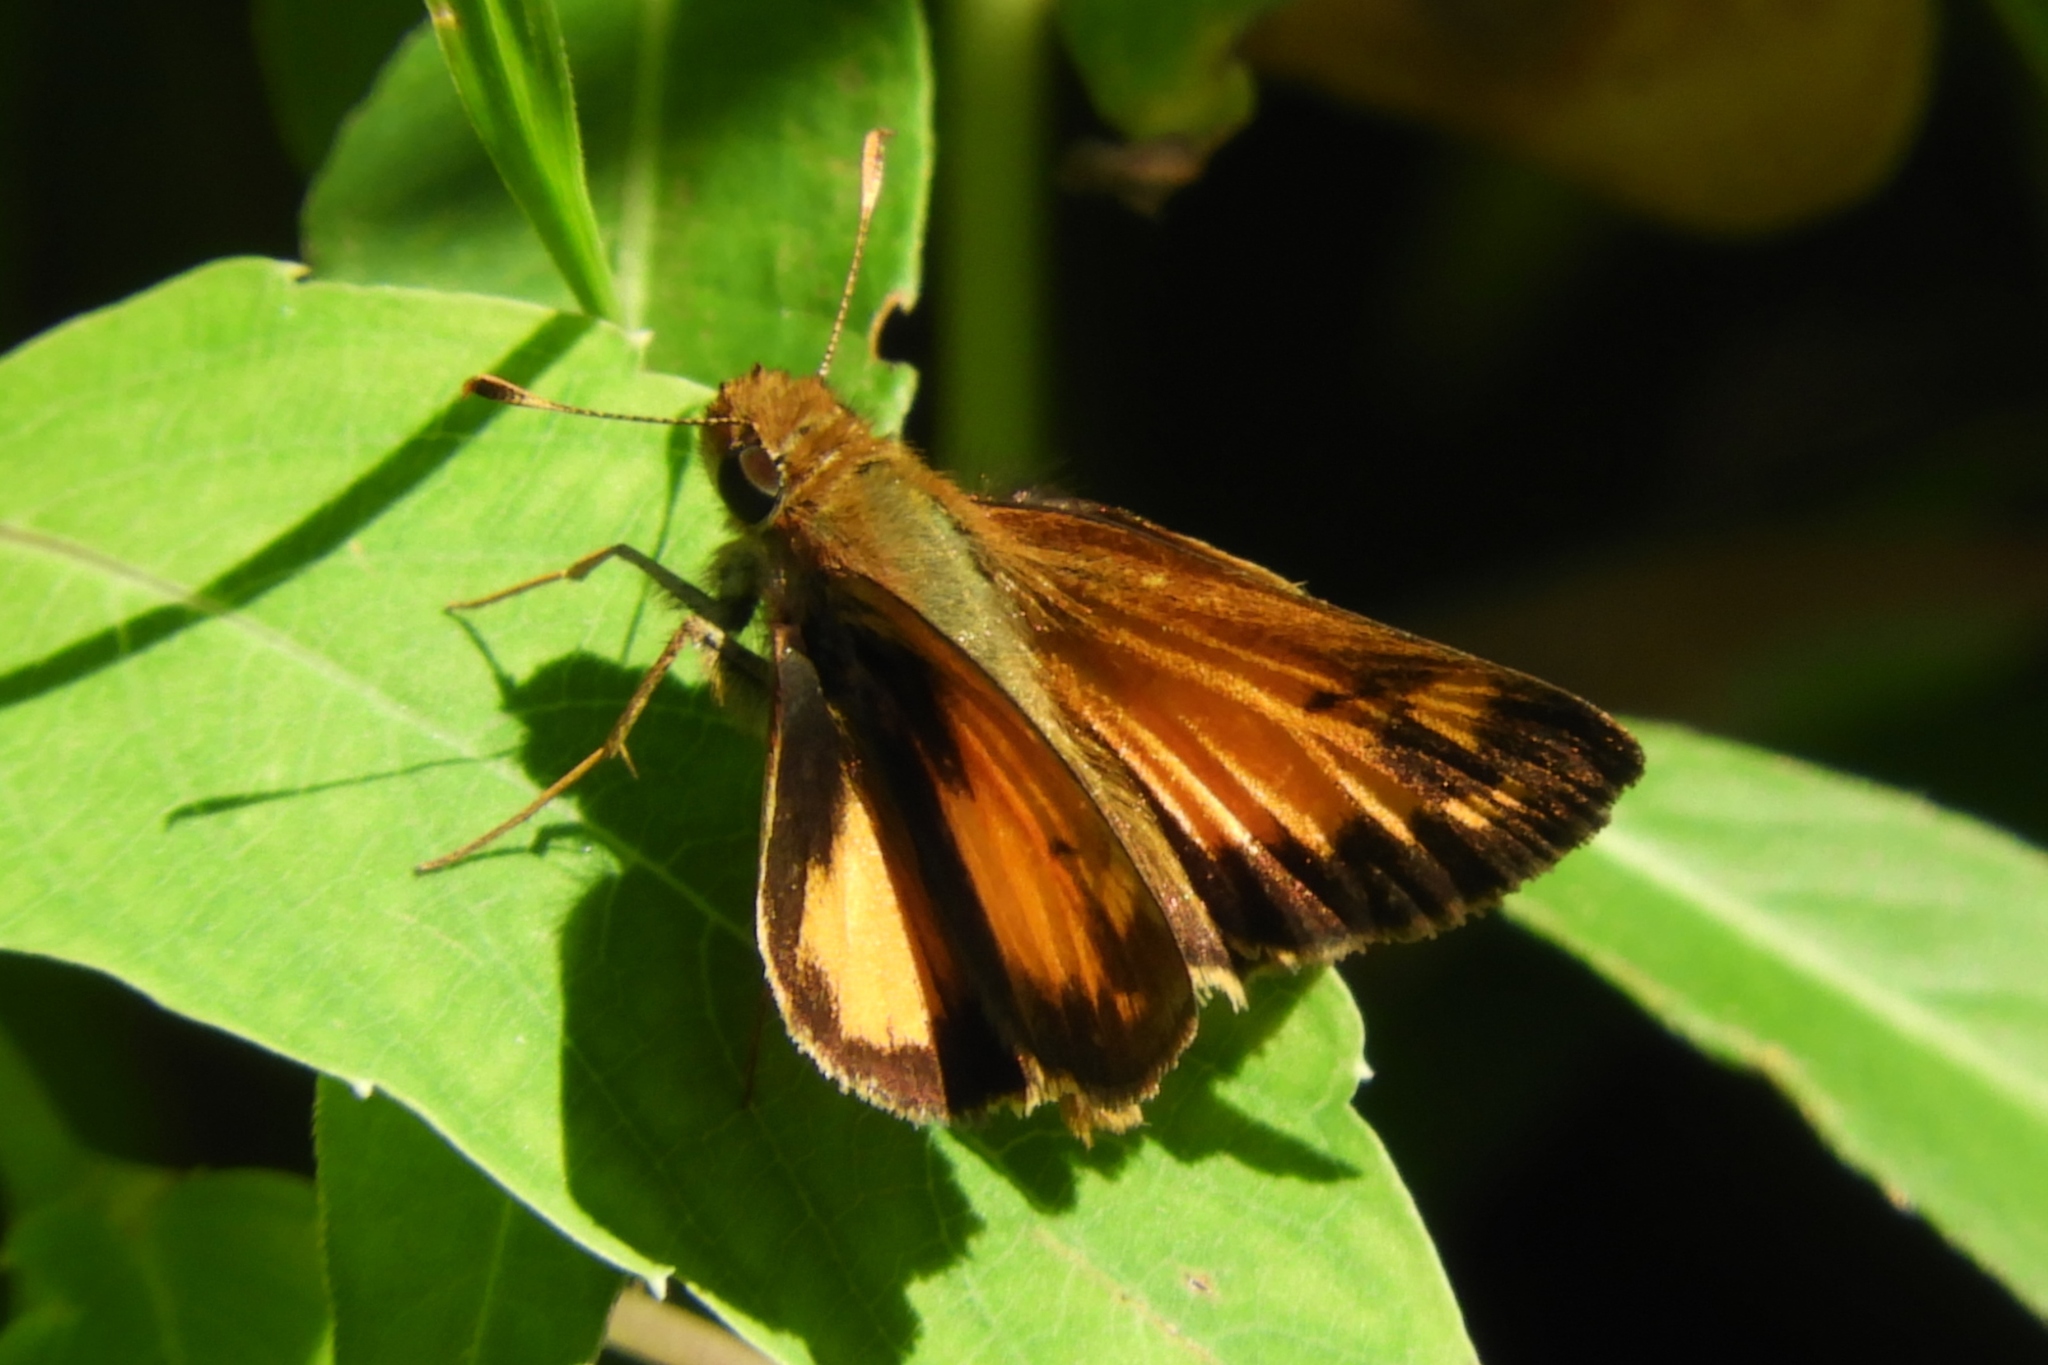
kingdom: Animalia
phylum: Arthropoda
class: Insecta
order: Lepidoptera
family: Hesperiidae
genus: Lon
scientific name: Lon zabulon
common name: Zabulon skipper
